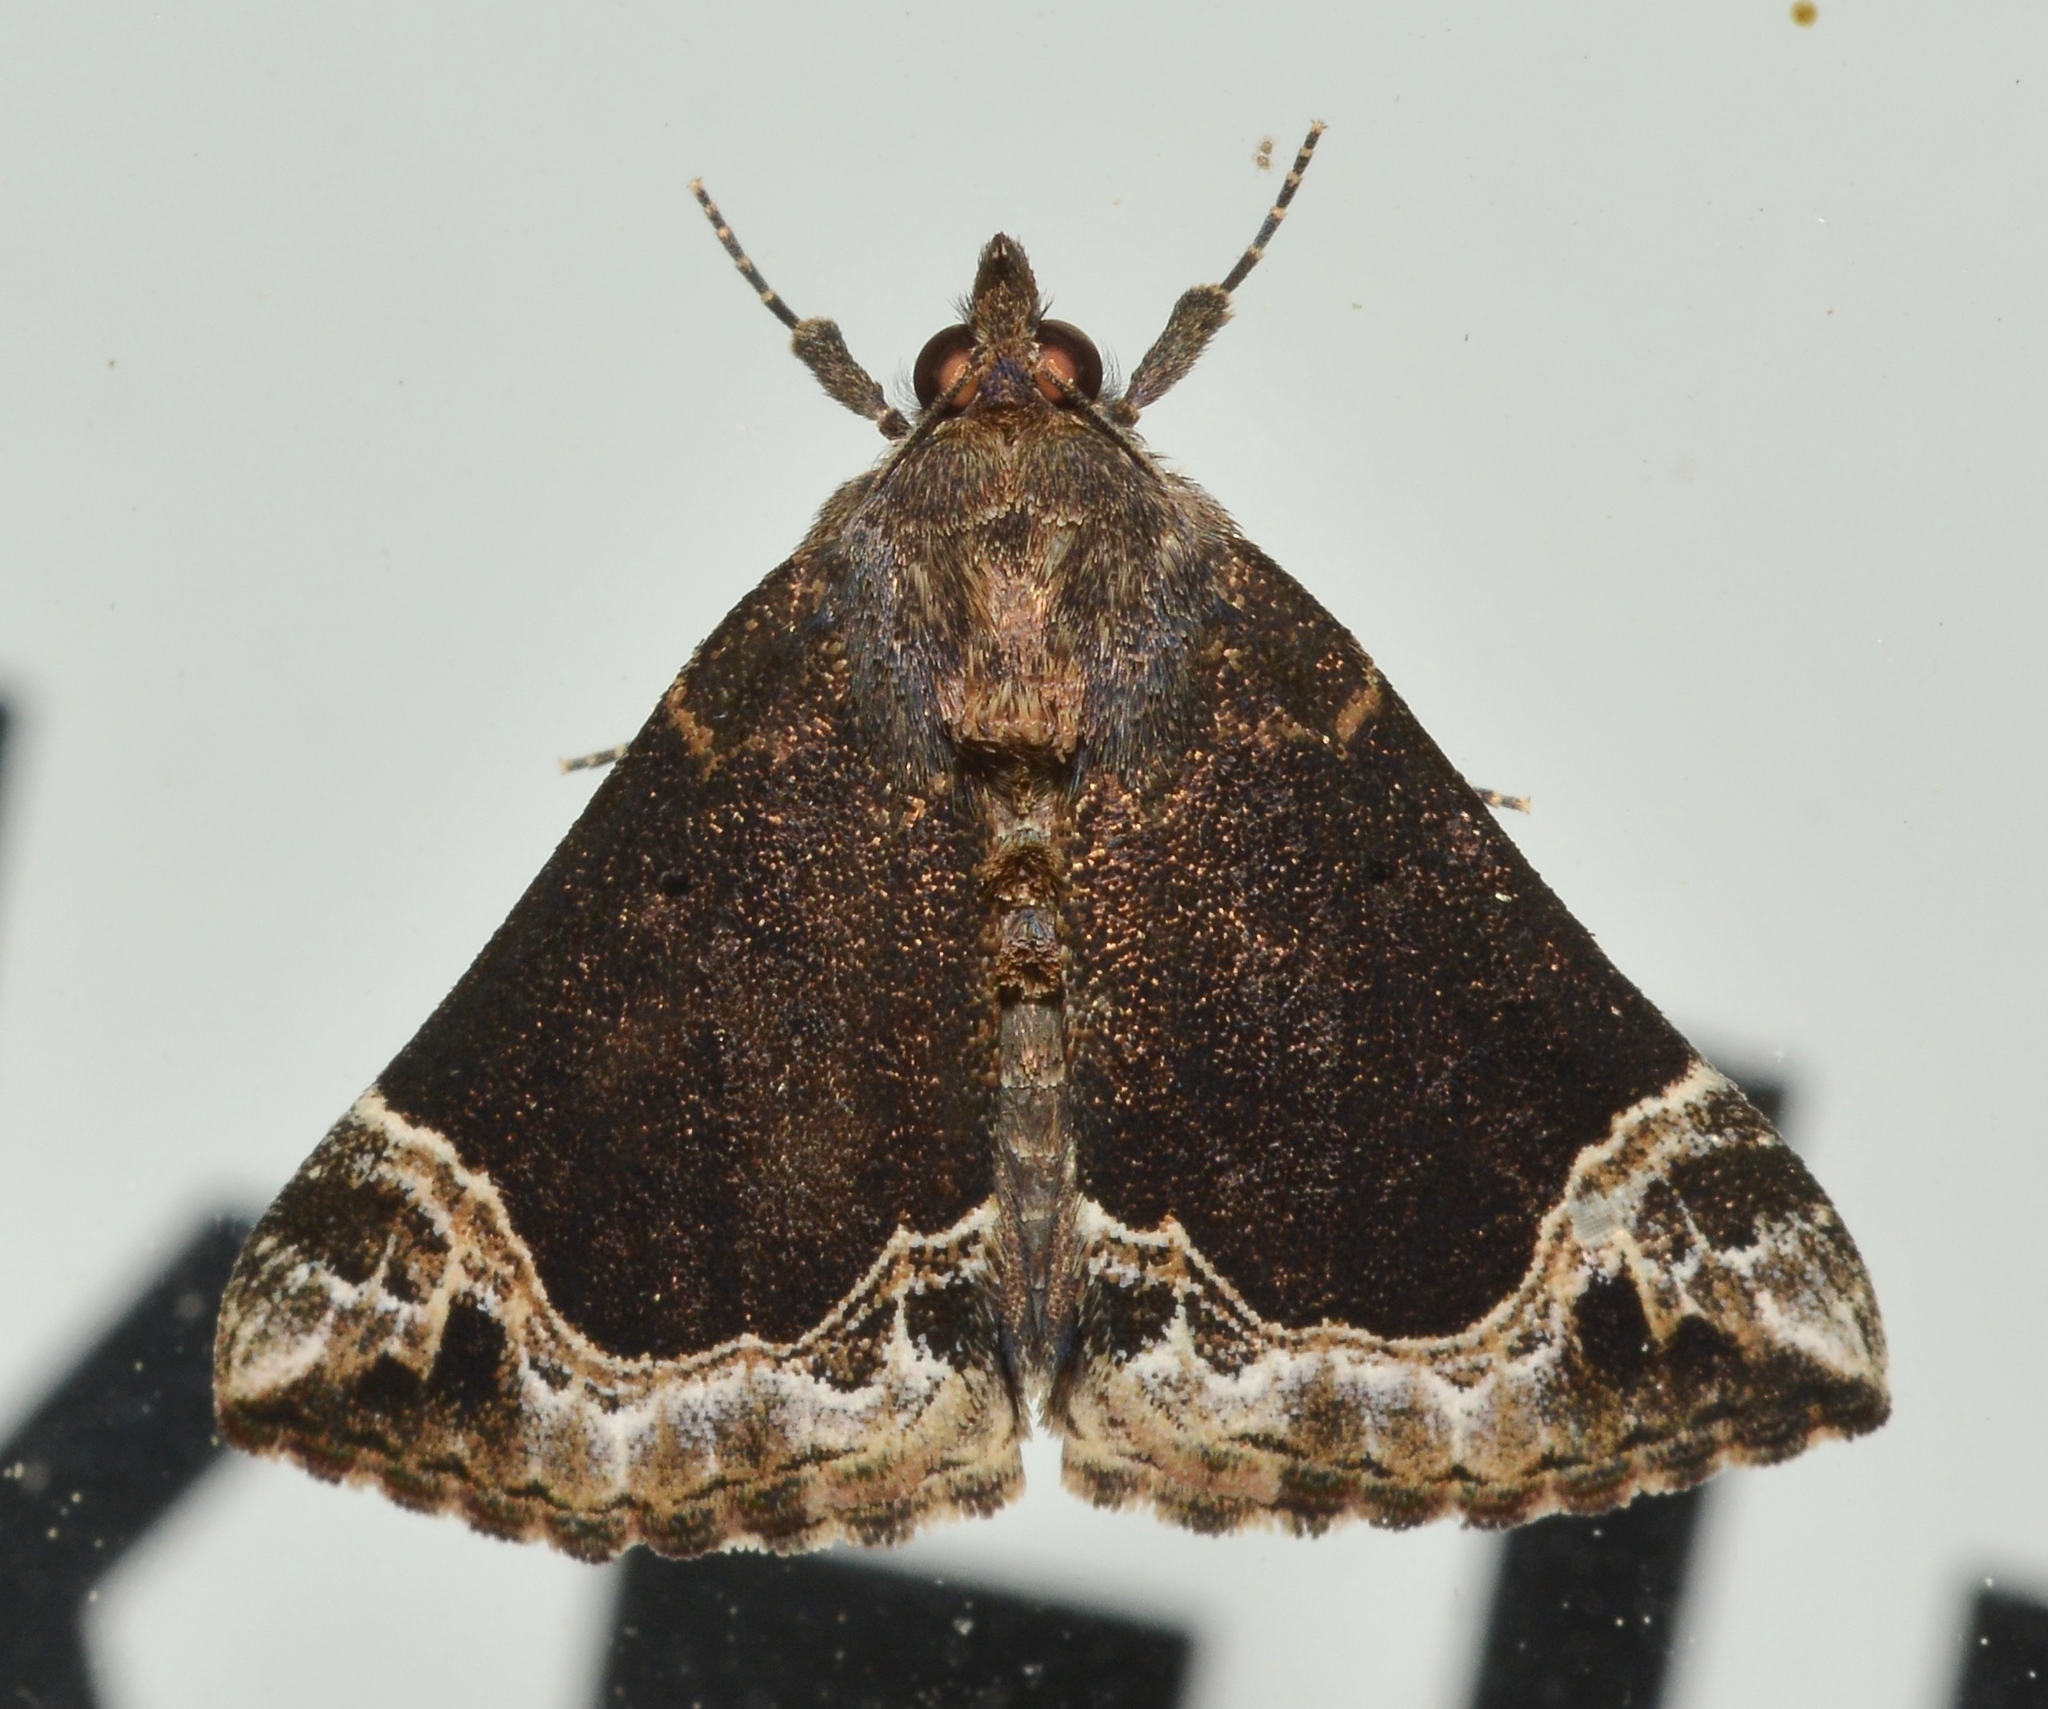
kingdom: Animalia
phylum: Arthropoda
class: Insecta
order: Lepidoptera
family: Erebidae
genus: Hypena
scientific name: Hypena abalienalis
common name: White-lined snout
